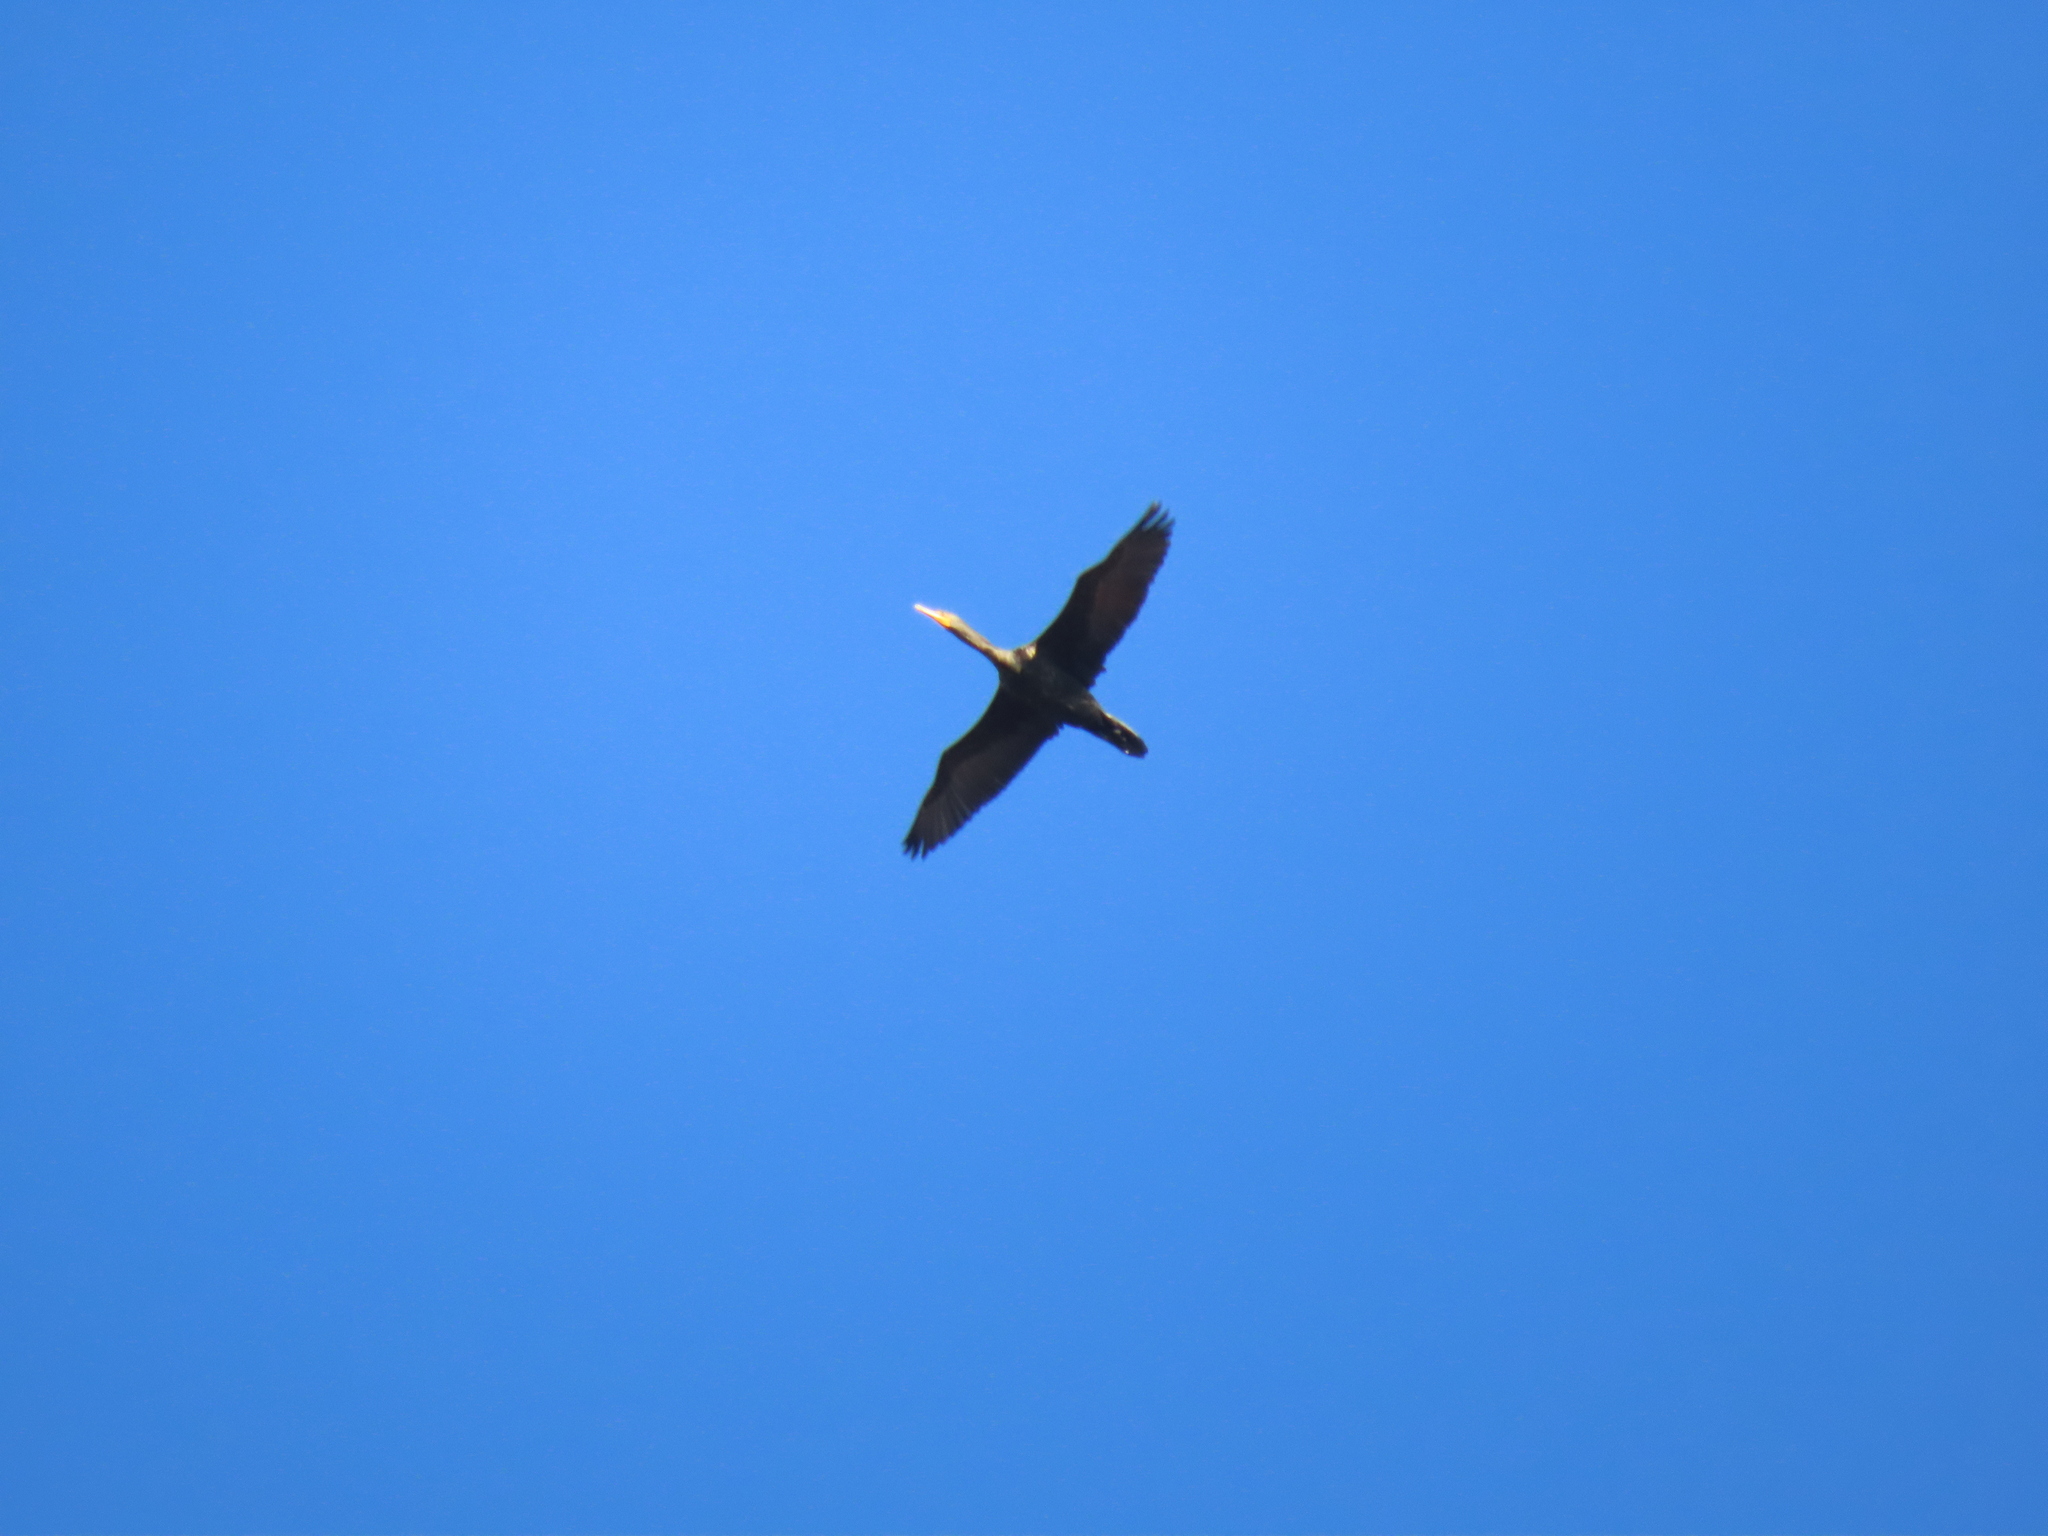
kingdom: Animalia
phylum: Chordata
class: Aves
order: Suliformes
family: Phalacrocoracidae
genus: Phalacrocorax
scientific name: Phalacrocorax auritus
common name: Double-crested cormorant
